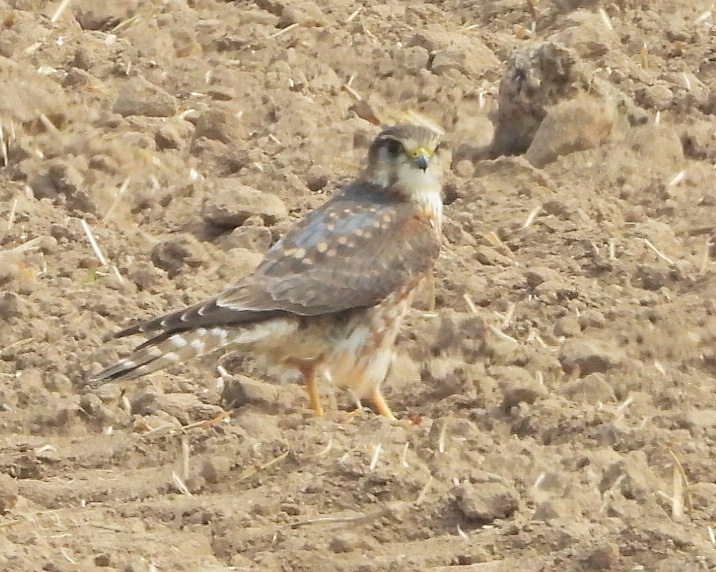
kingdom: Animalia
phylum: Chordata
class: Aves
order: Falconiformes
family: Falconidae
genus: Falco
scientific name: Falco columbarius
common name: Merlin
